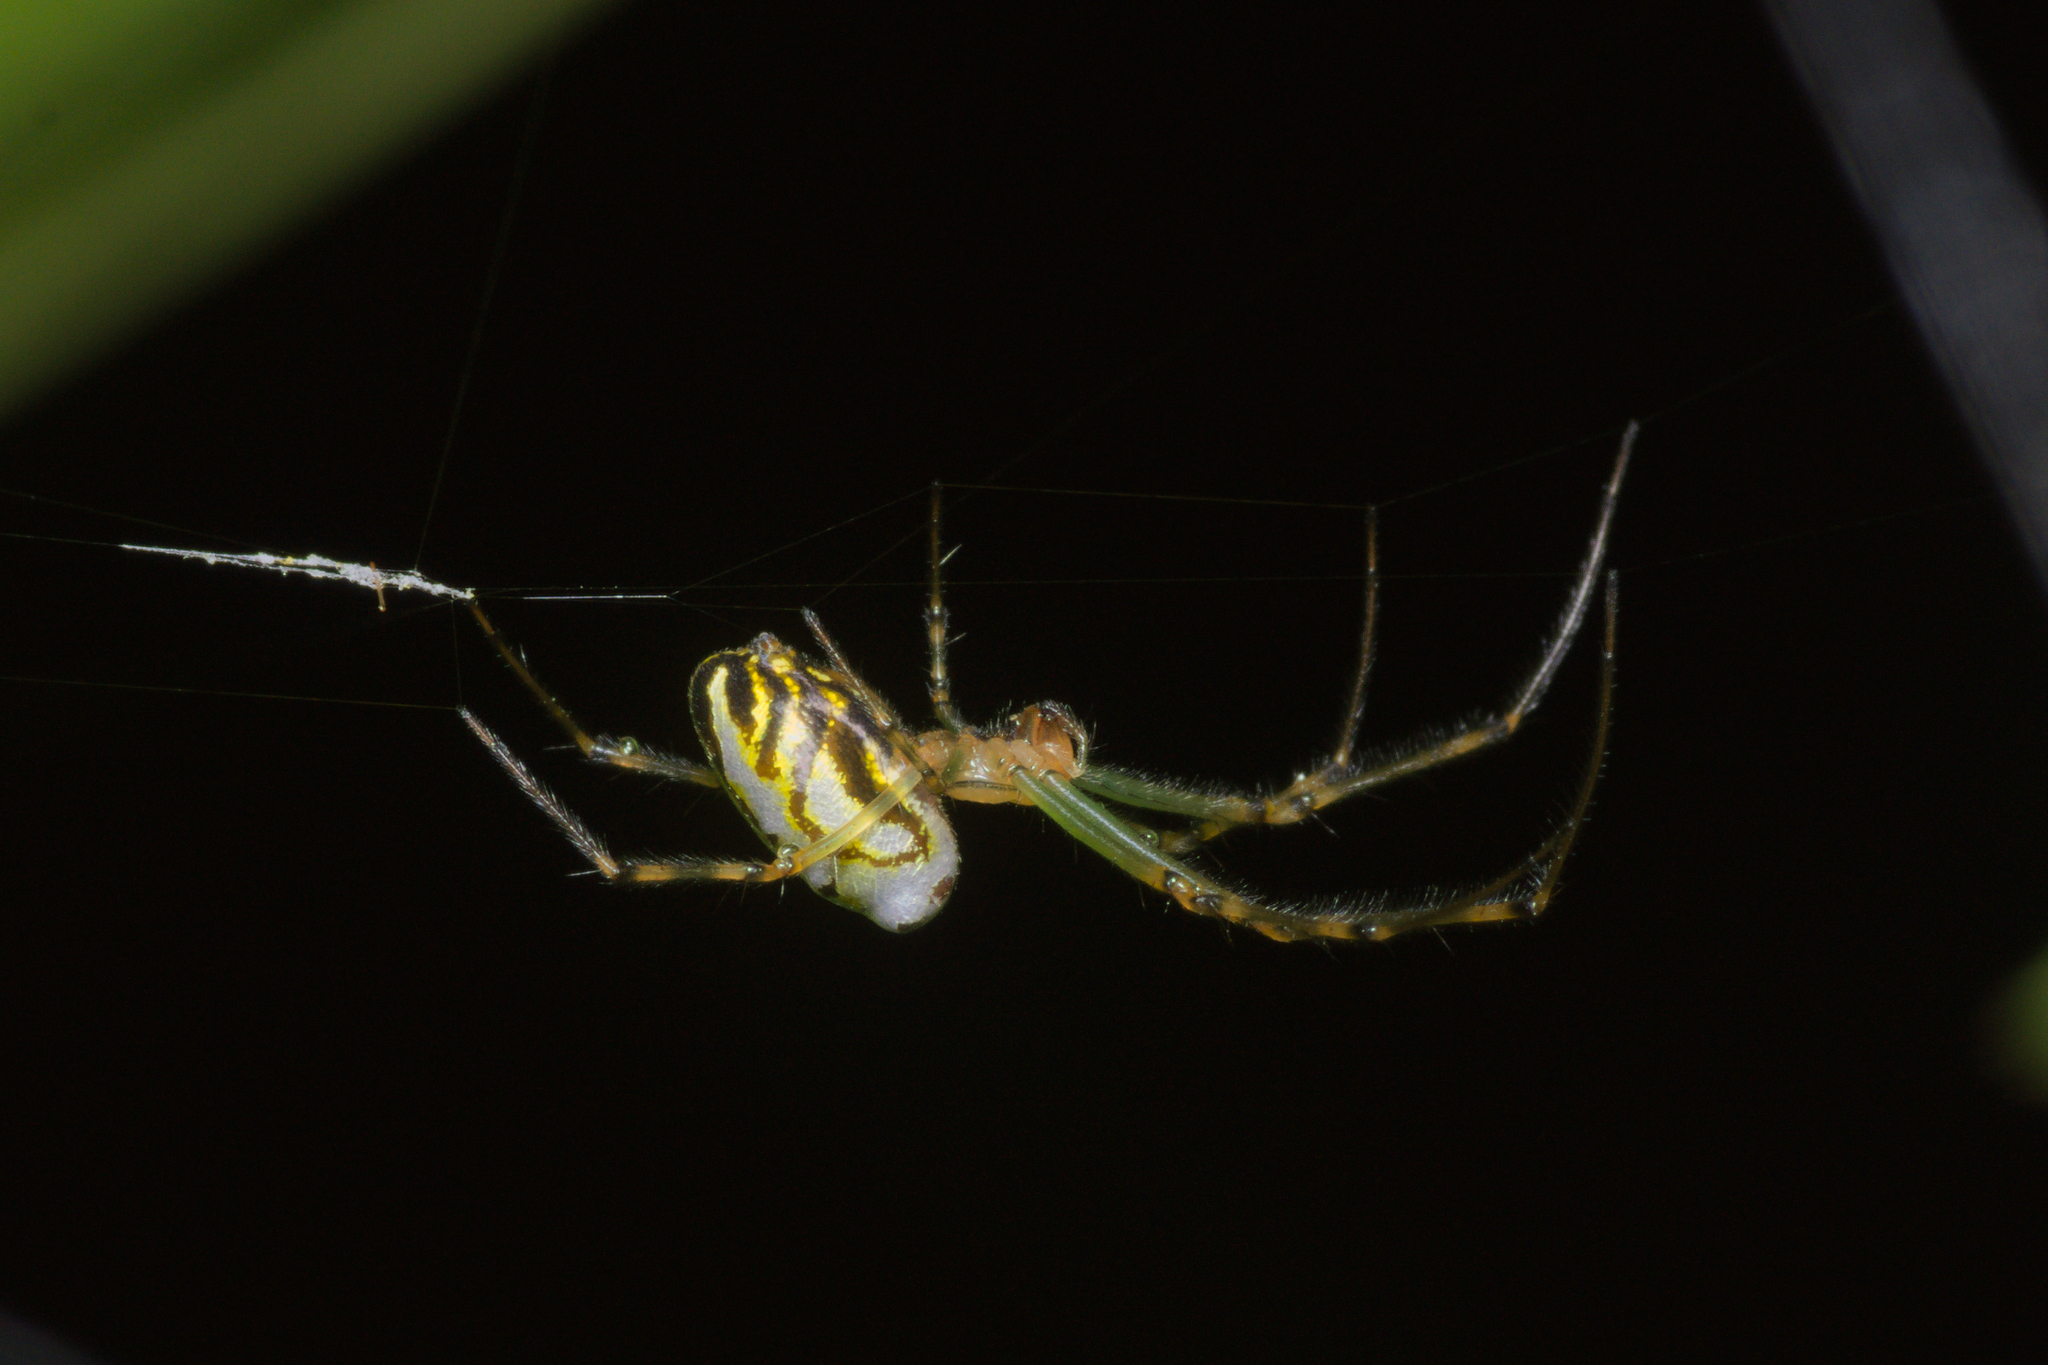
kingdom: Animalia
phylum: Arthropoda
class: Arachnida
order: Araneae
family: Tetragnathidae
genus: Leucauge
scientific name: Leucauge dromedaria
